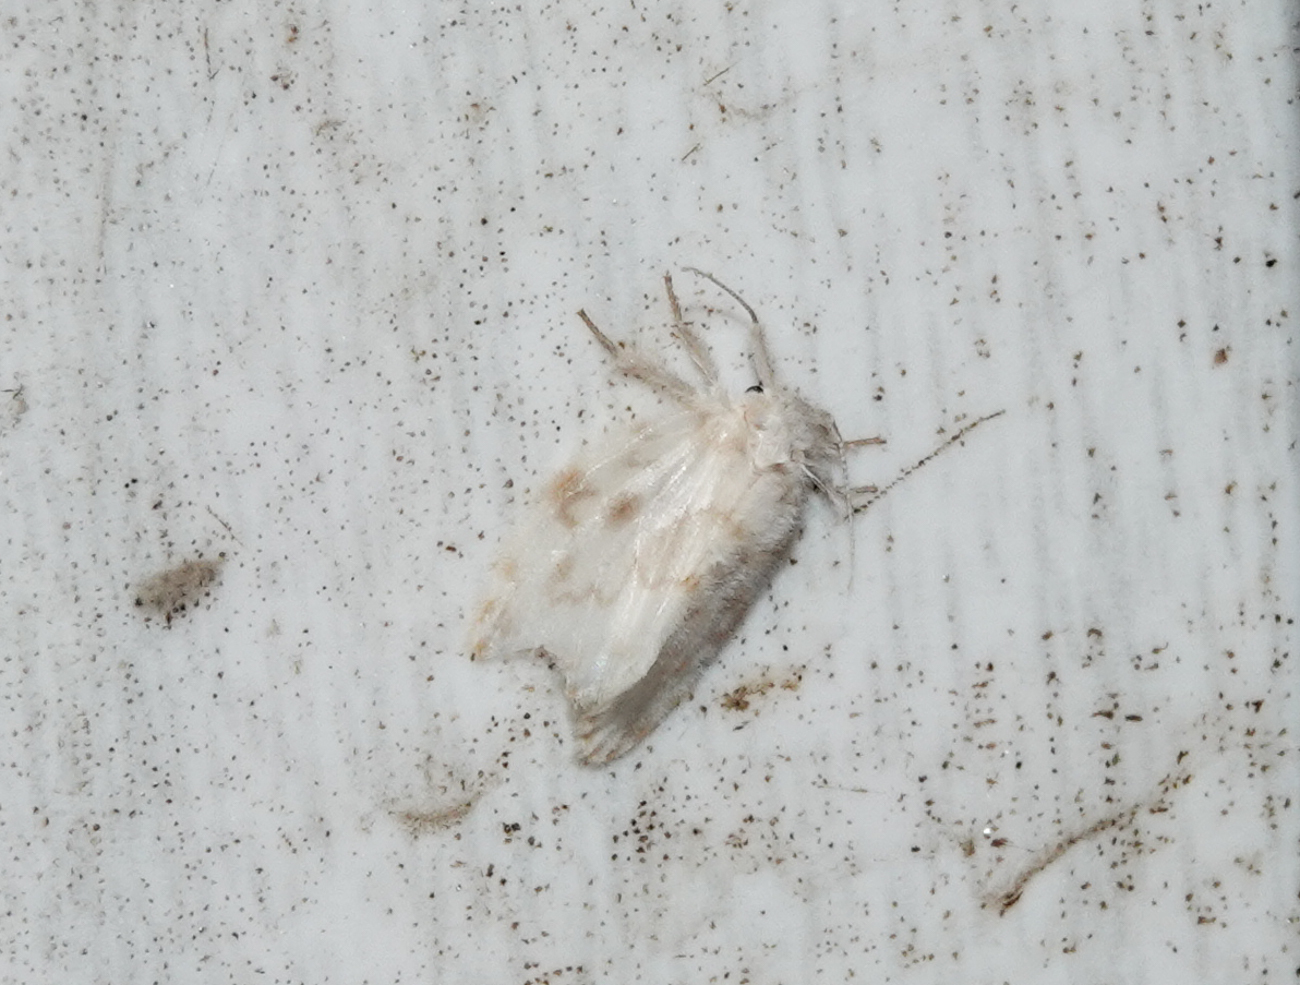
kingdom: Animalia
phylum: Arthropoda
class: Insecta
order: Lepidoptera
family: Erebidae
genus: Chamaita
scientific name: Chamaita nympha
